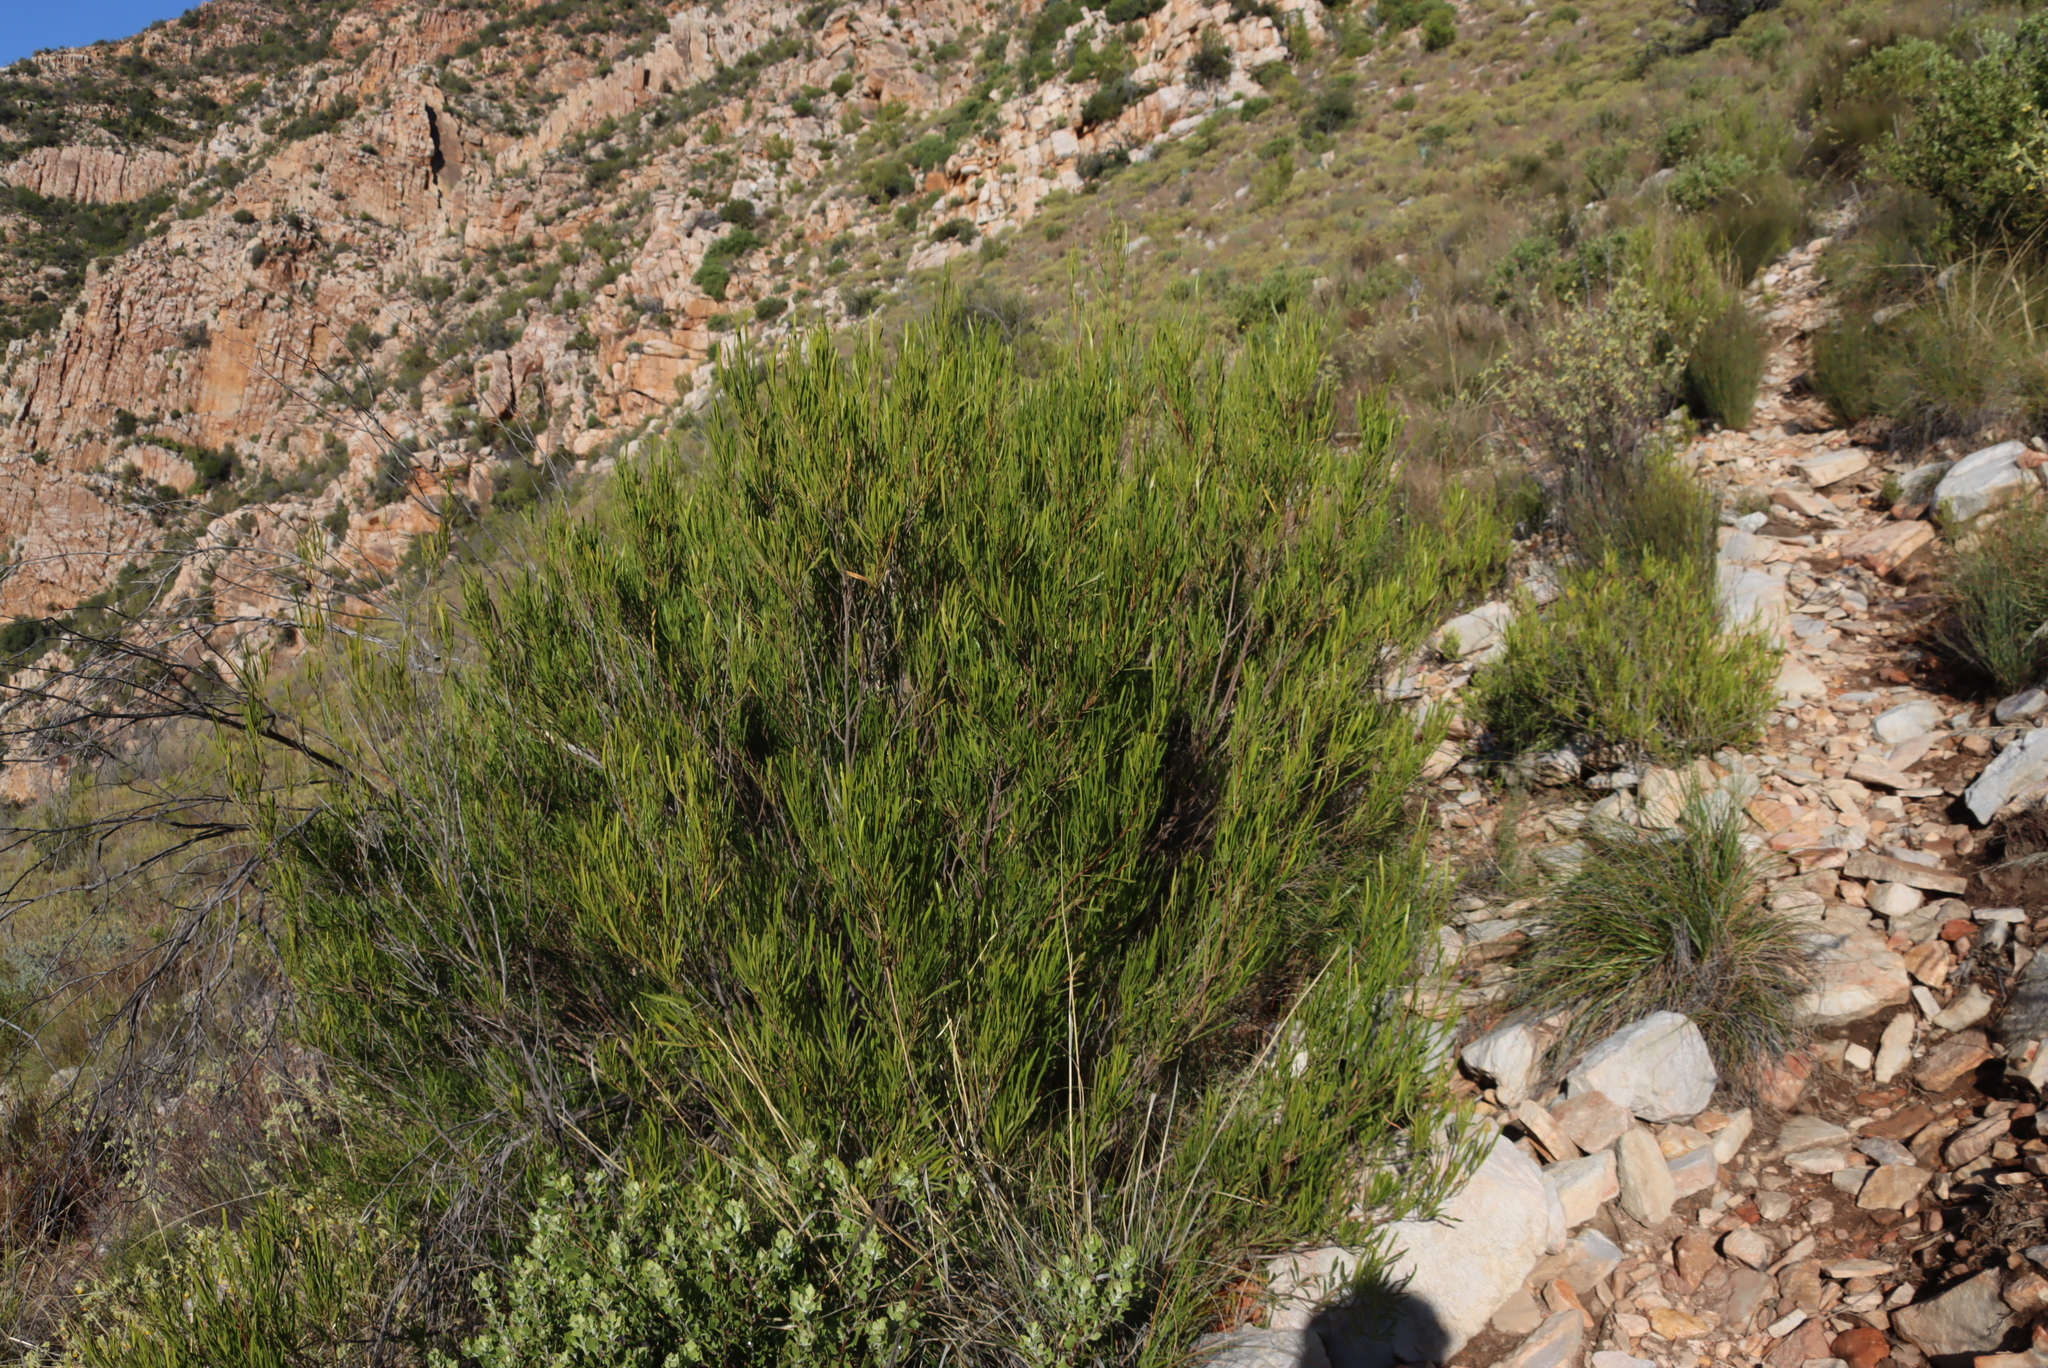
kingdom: Plantae
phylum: Tracheophyta
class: Magnoliopsida
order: Sapindales
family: Sapindaceae
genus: Dodonaea
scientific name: Dodonaea viscosa
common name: Hopbush
